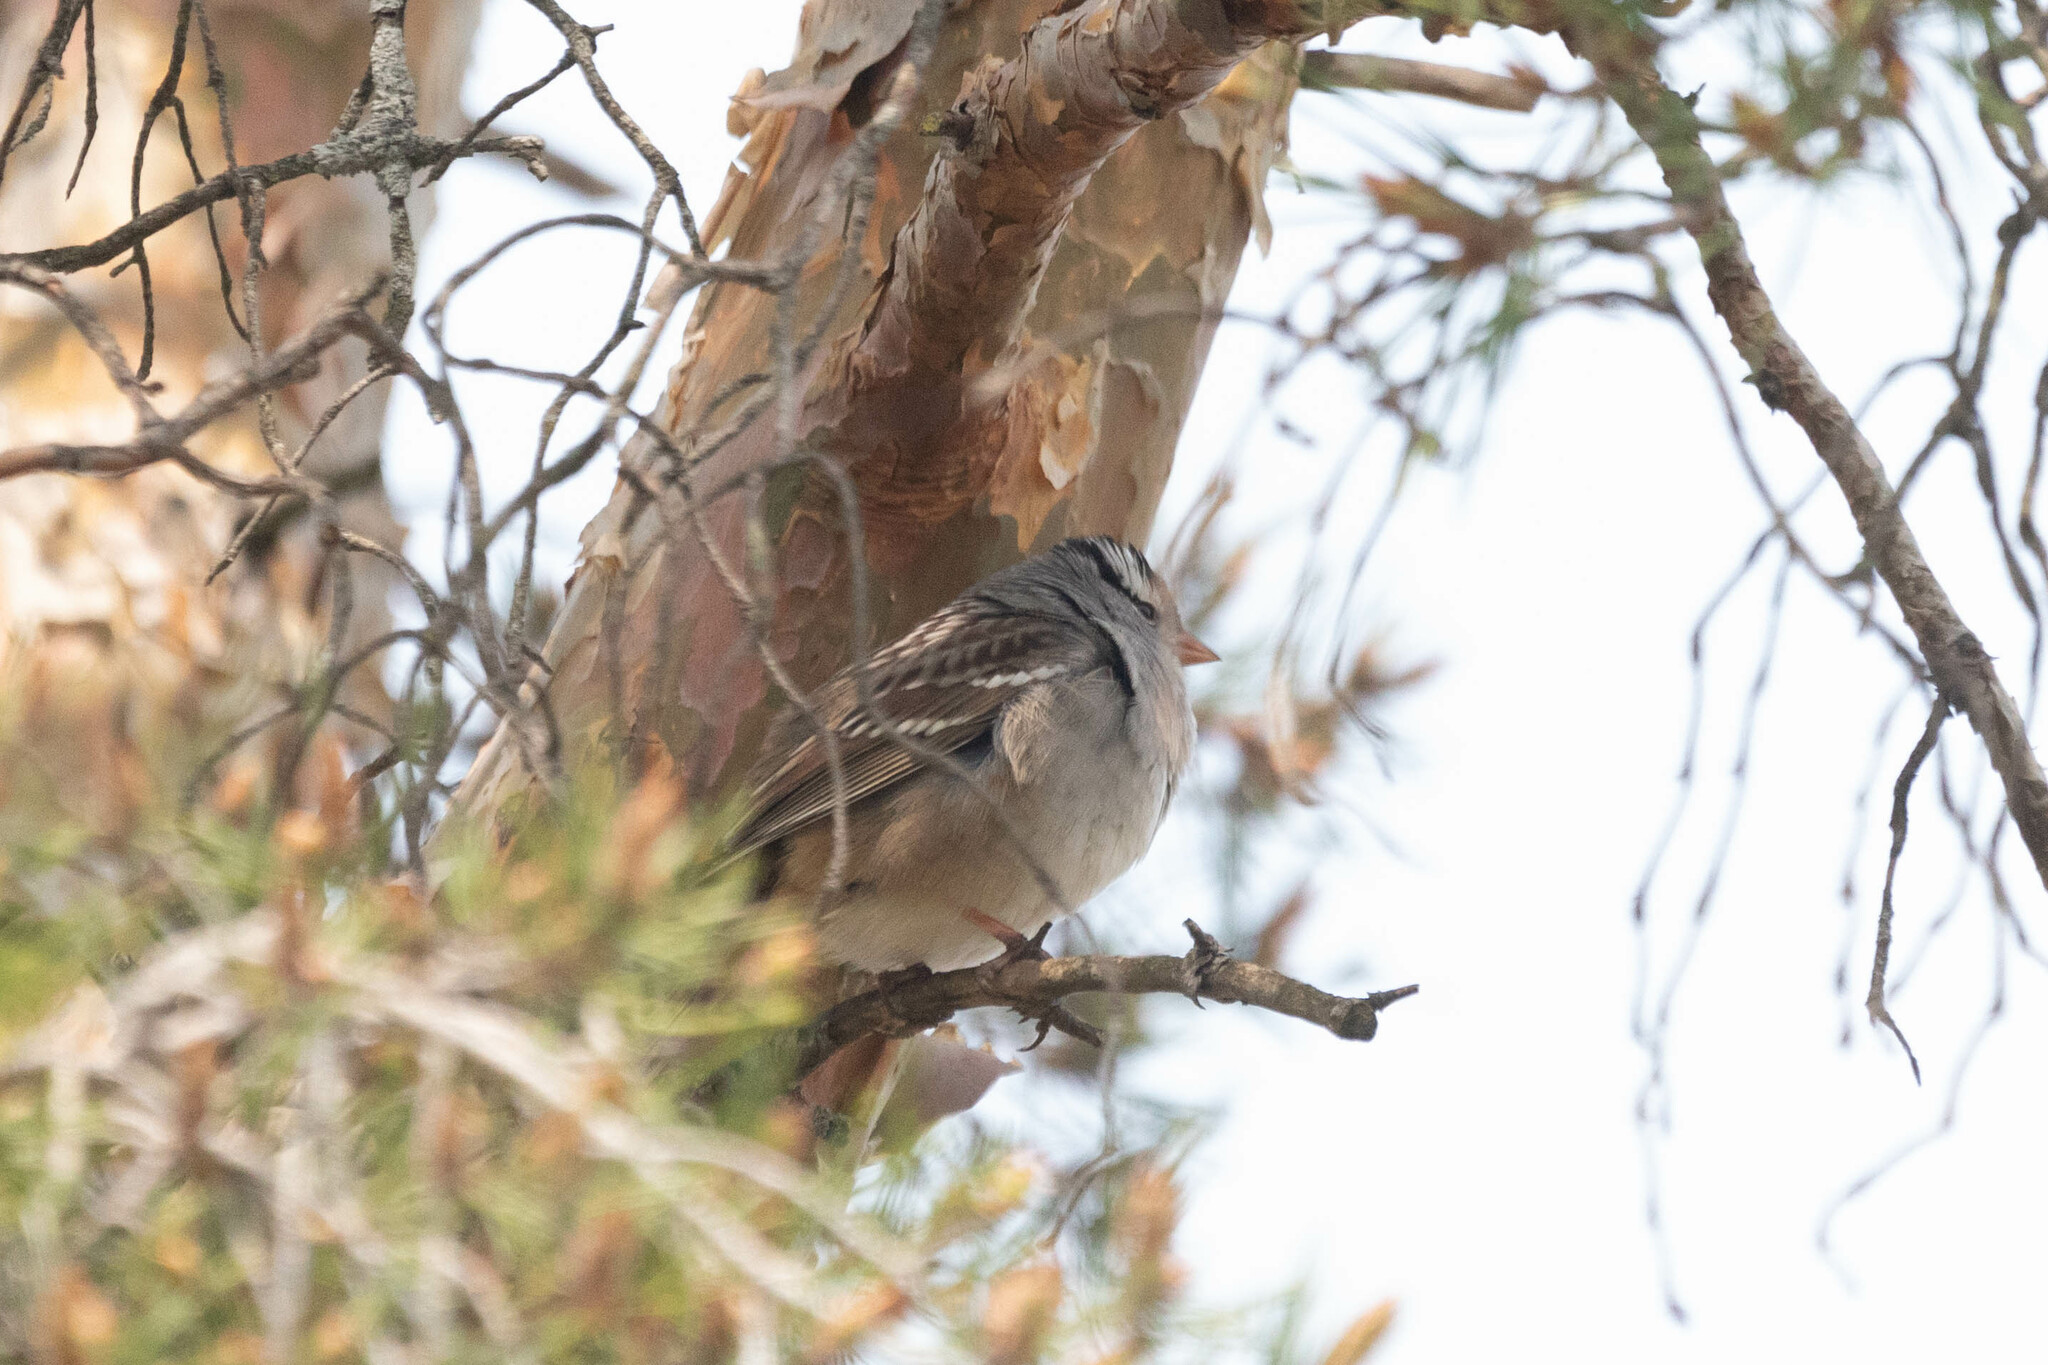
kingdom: Animalia
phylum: Chordata
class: Aves
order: Passeriformes
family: Passerellidae
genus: Zonotrichia
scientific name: Zonotrichia leucophrys
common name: White-crowned sparrow
